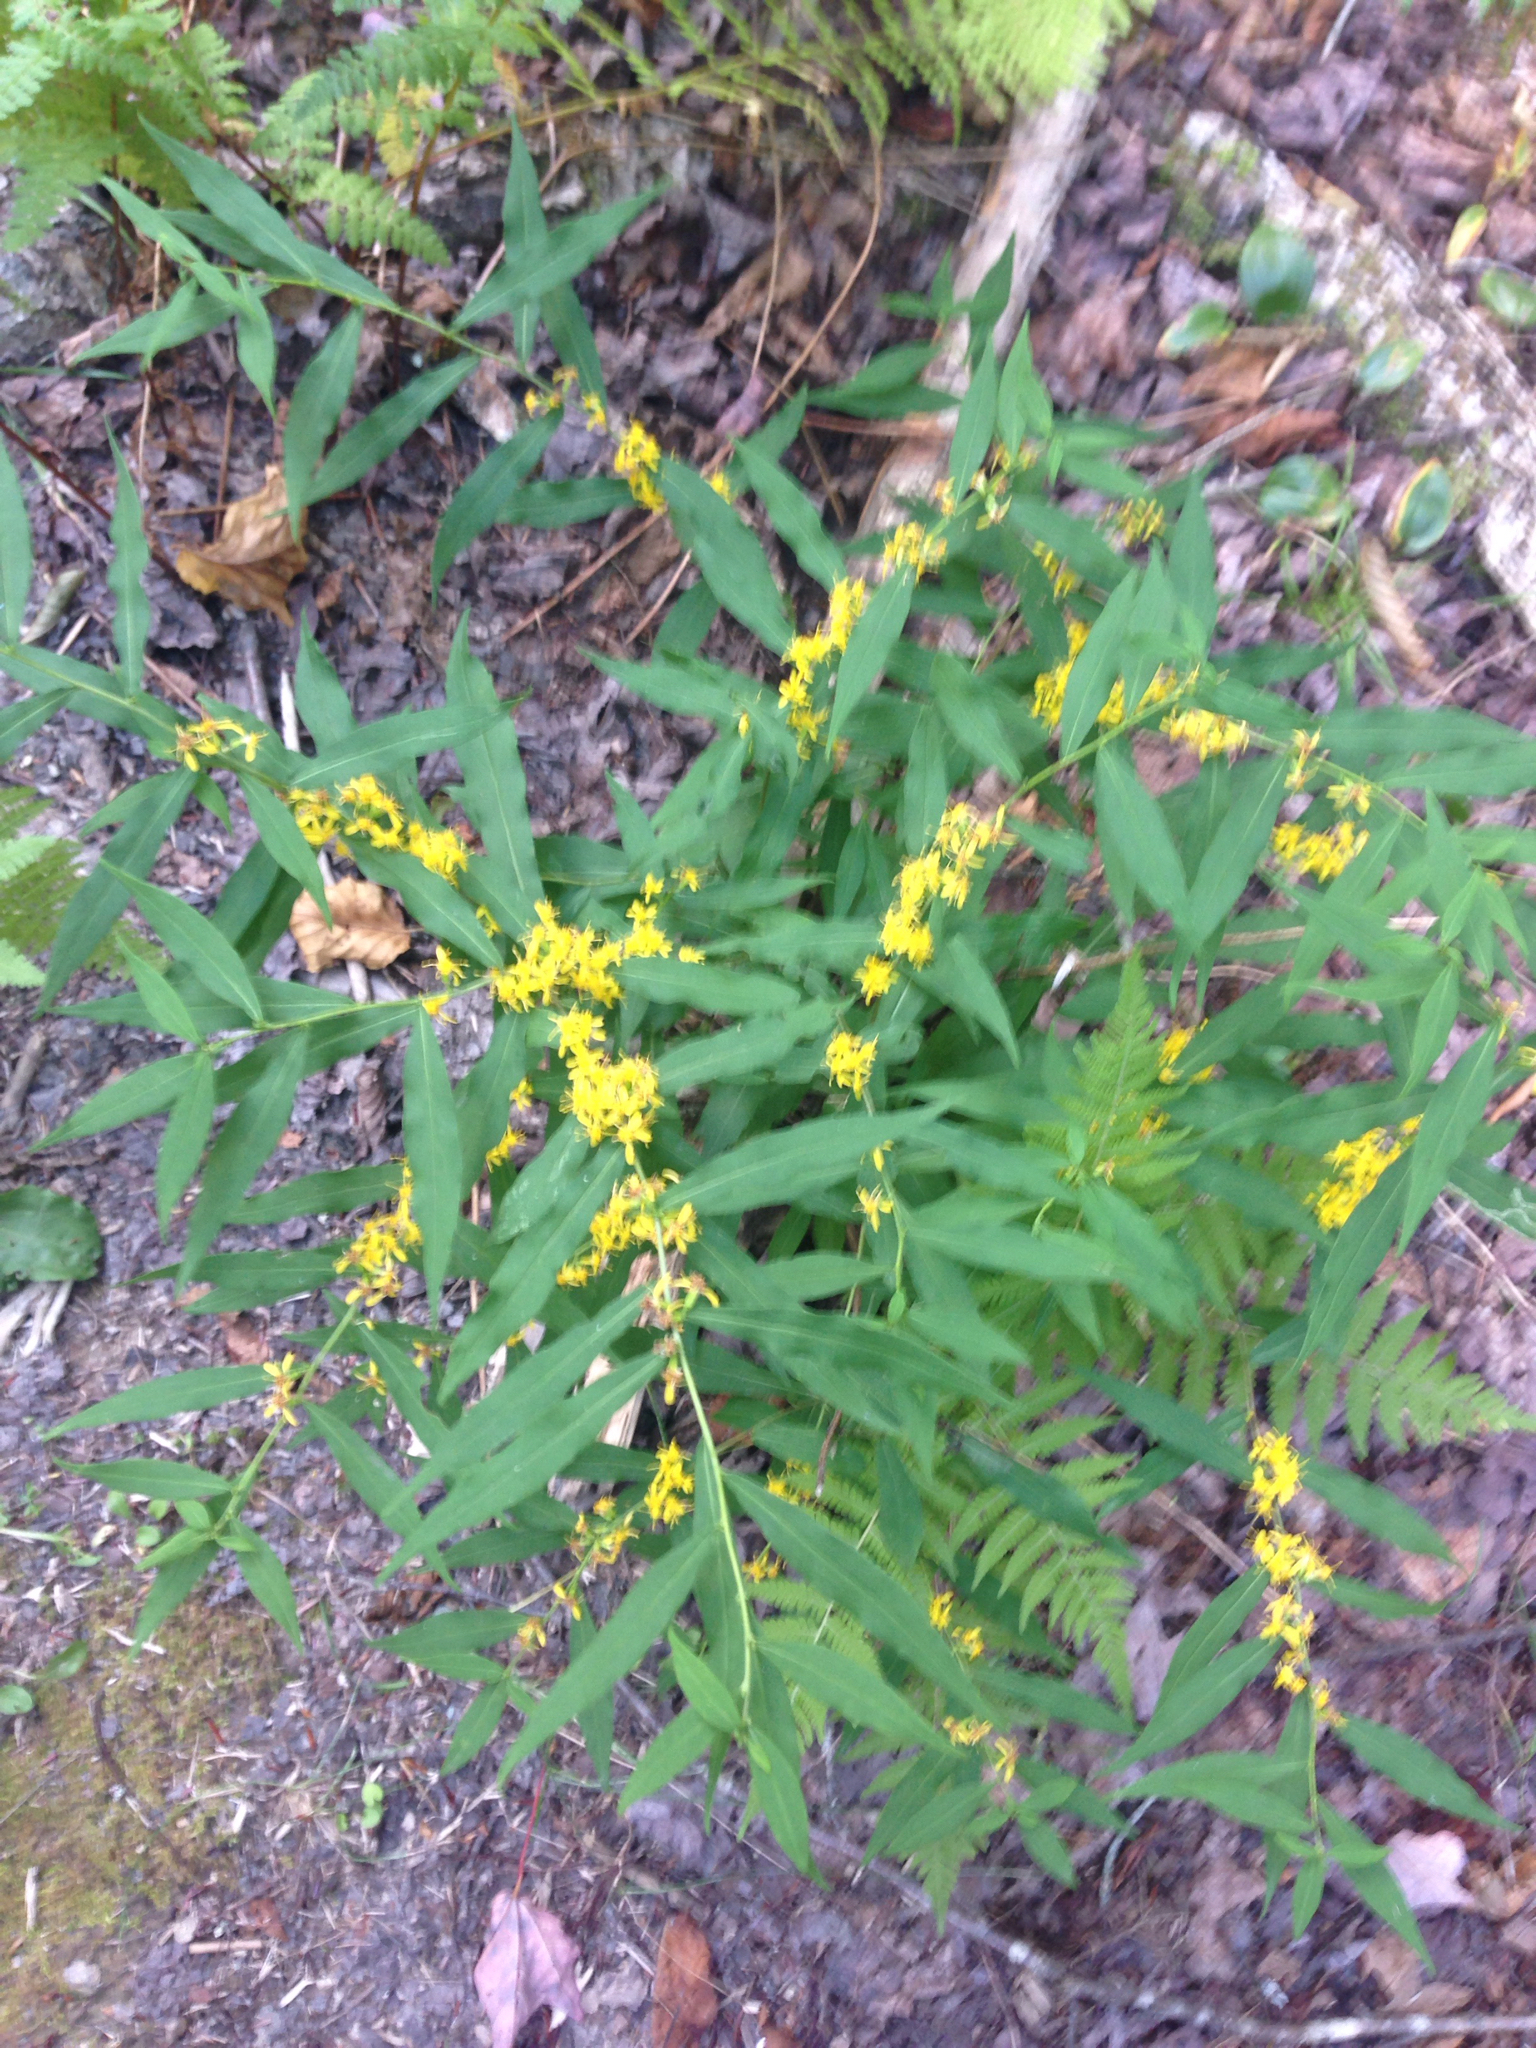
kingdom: Plantae
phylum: Tracheophyta
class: Magnoliopsida
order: Asterales
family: Asteraceae
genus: Solidago
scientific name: Solidago caesia
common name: Woodland goldenrod
